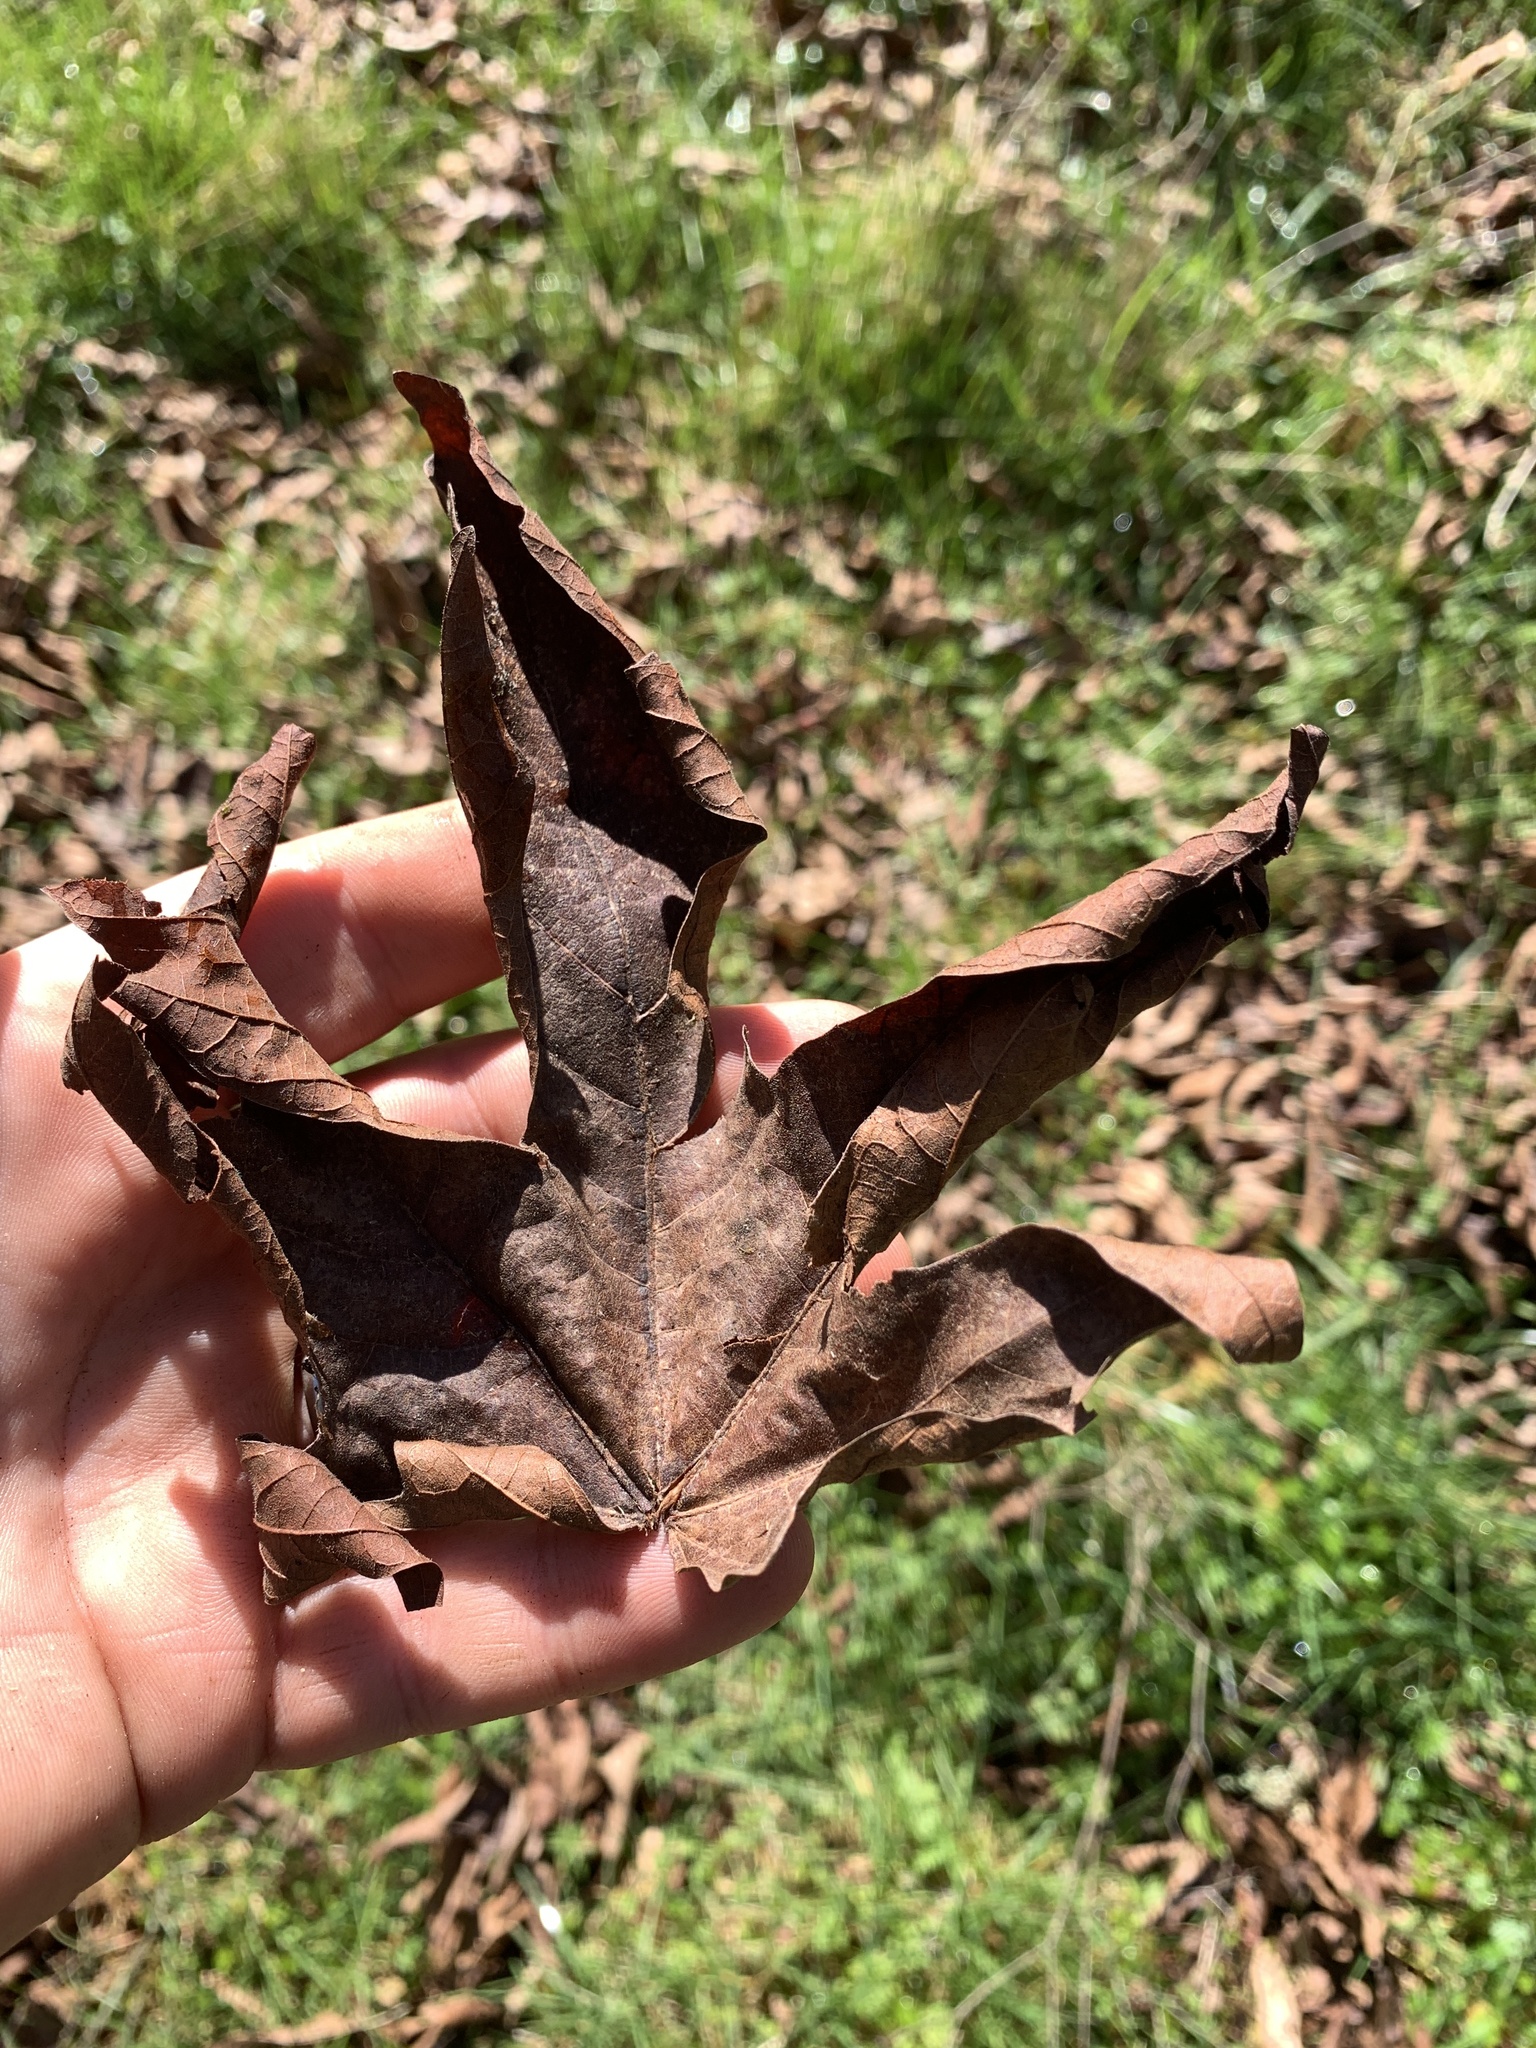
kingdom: Plantae
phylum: Tracheophyta
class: Magnoliopsida
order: Sapindales
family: Sapindaceae
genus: Acer
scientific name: Acer macrophyllum
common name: Oregon maple
